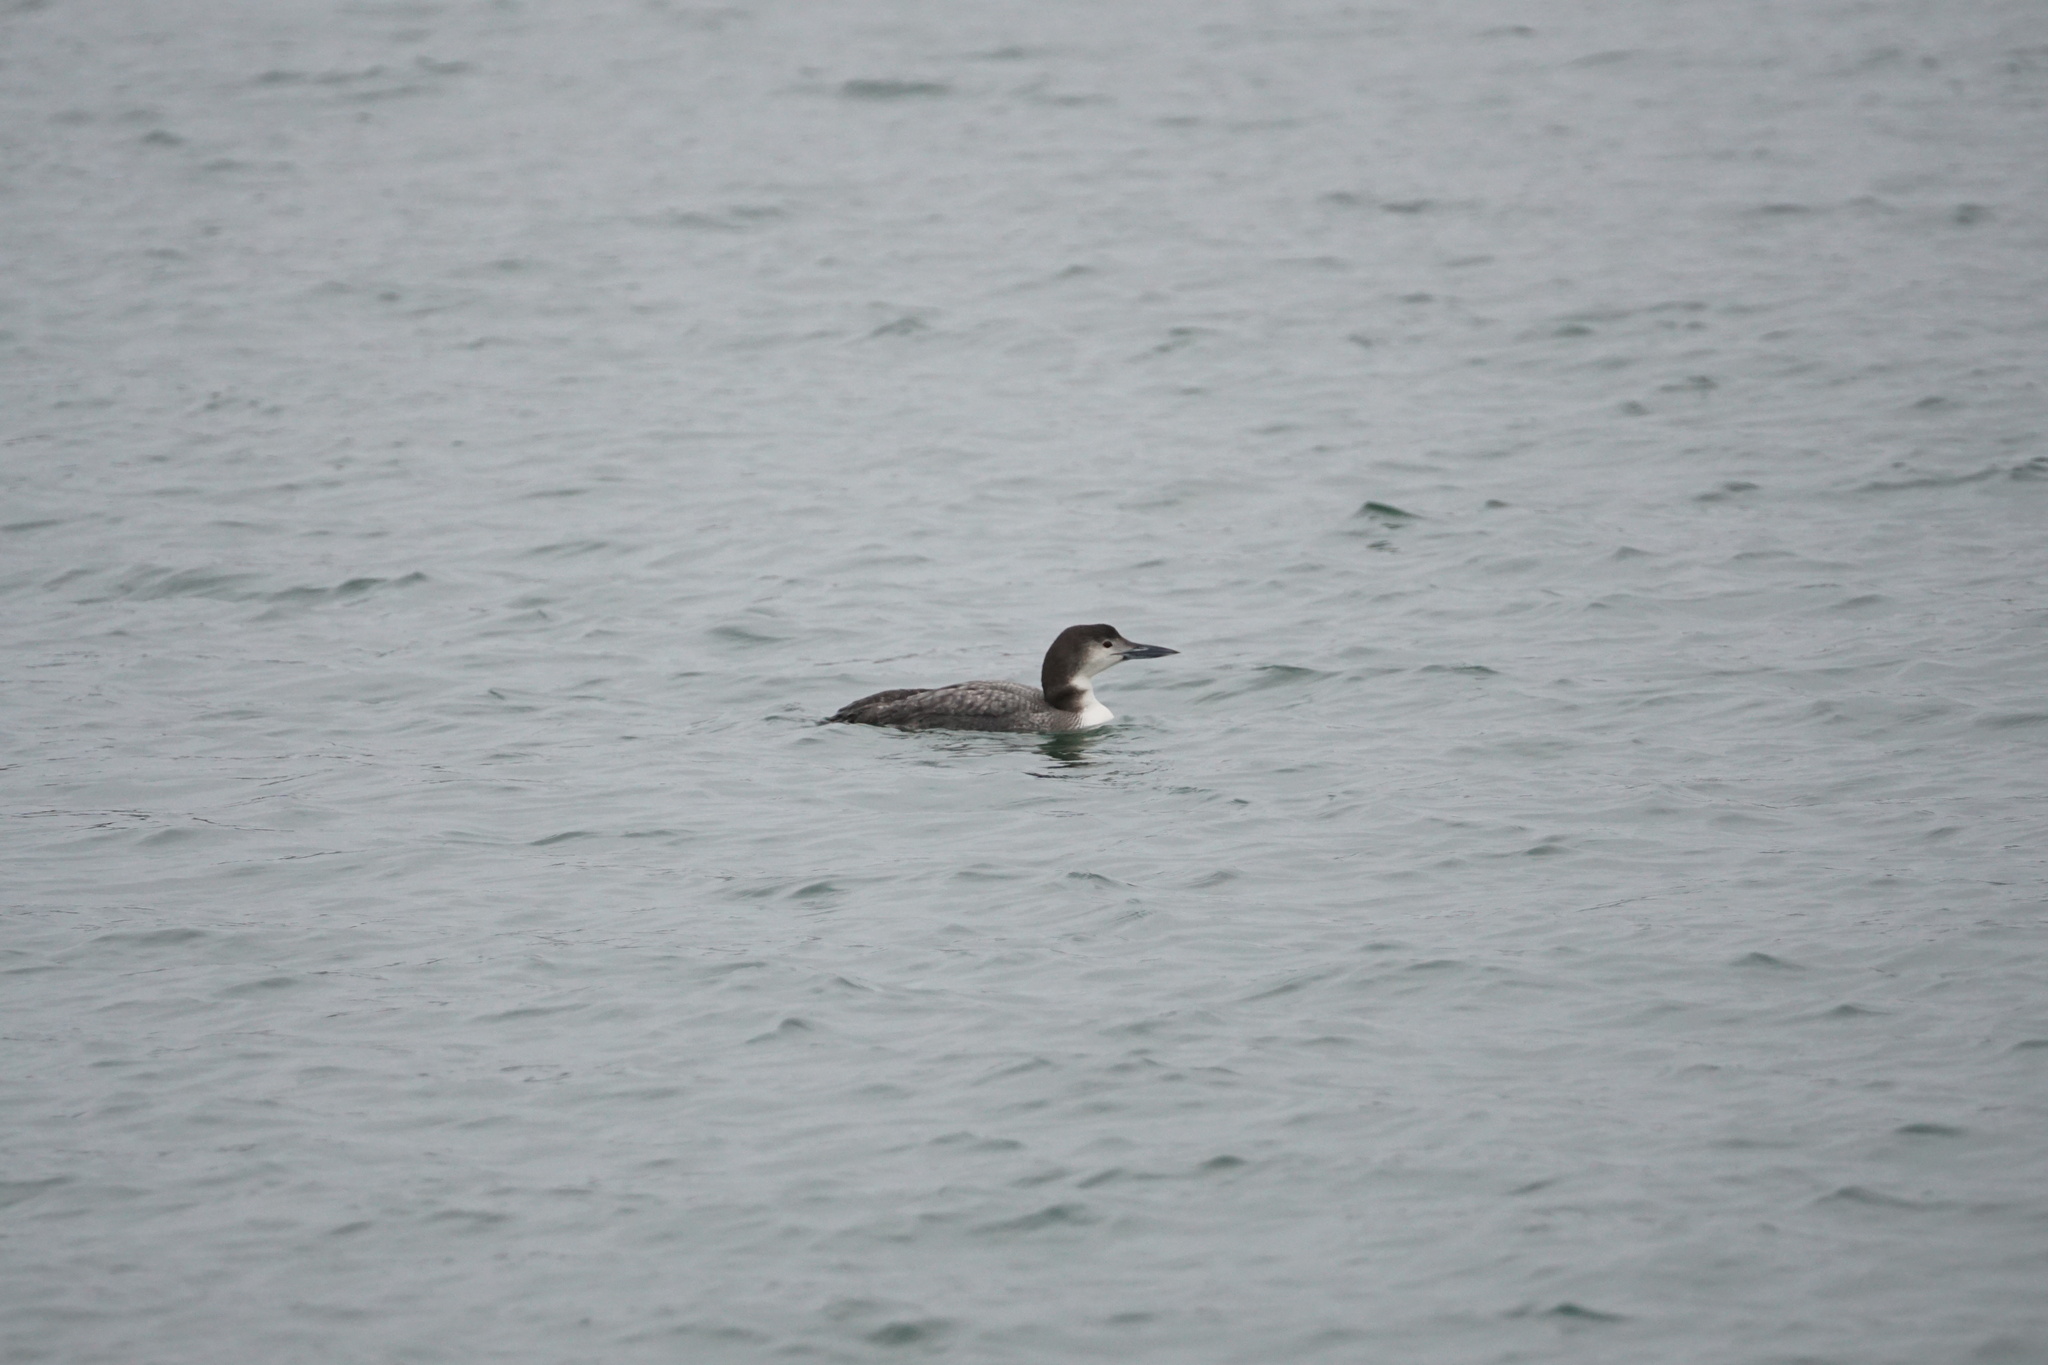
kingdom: Animalia
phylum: Chordata
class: Aves
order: Gaviiformes
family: Gaviidae
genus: Gavia
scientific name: Gavia immer
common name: Common loon
